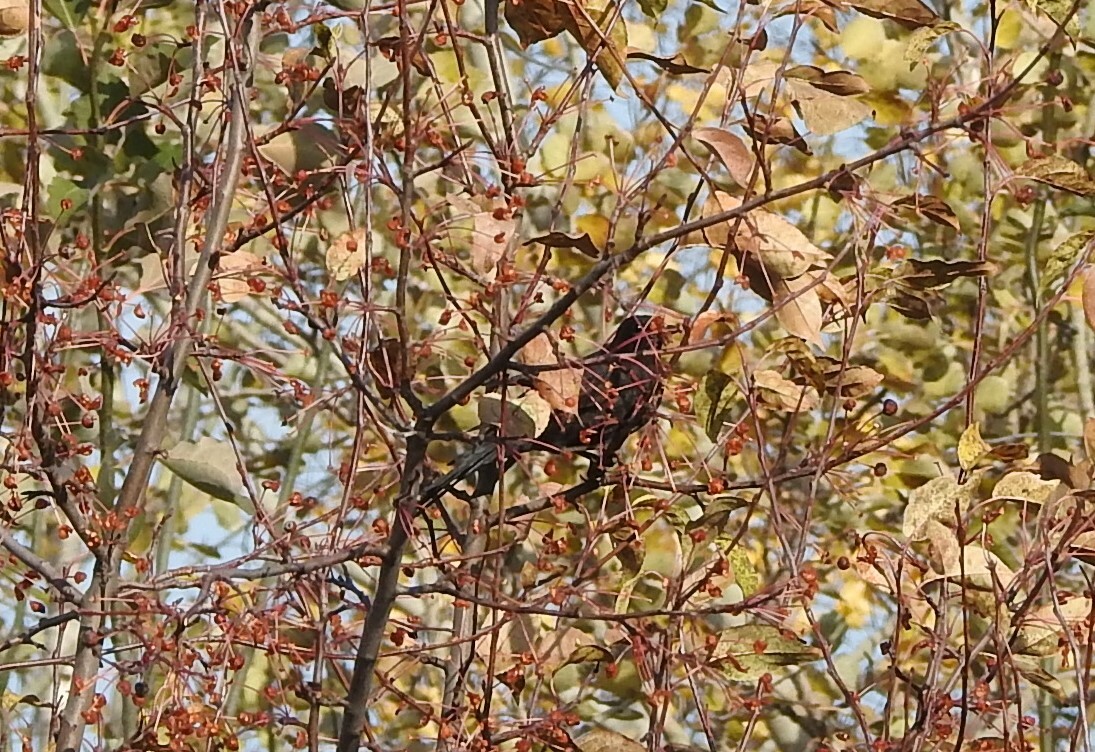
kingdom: Animalia
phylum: Chordata
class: Aves
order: Passeriformes
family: Turdidae
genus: Turdus
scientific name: Turdus merula
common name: Common blackbird
